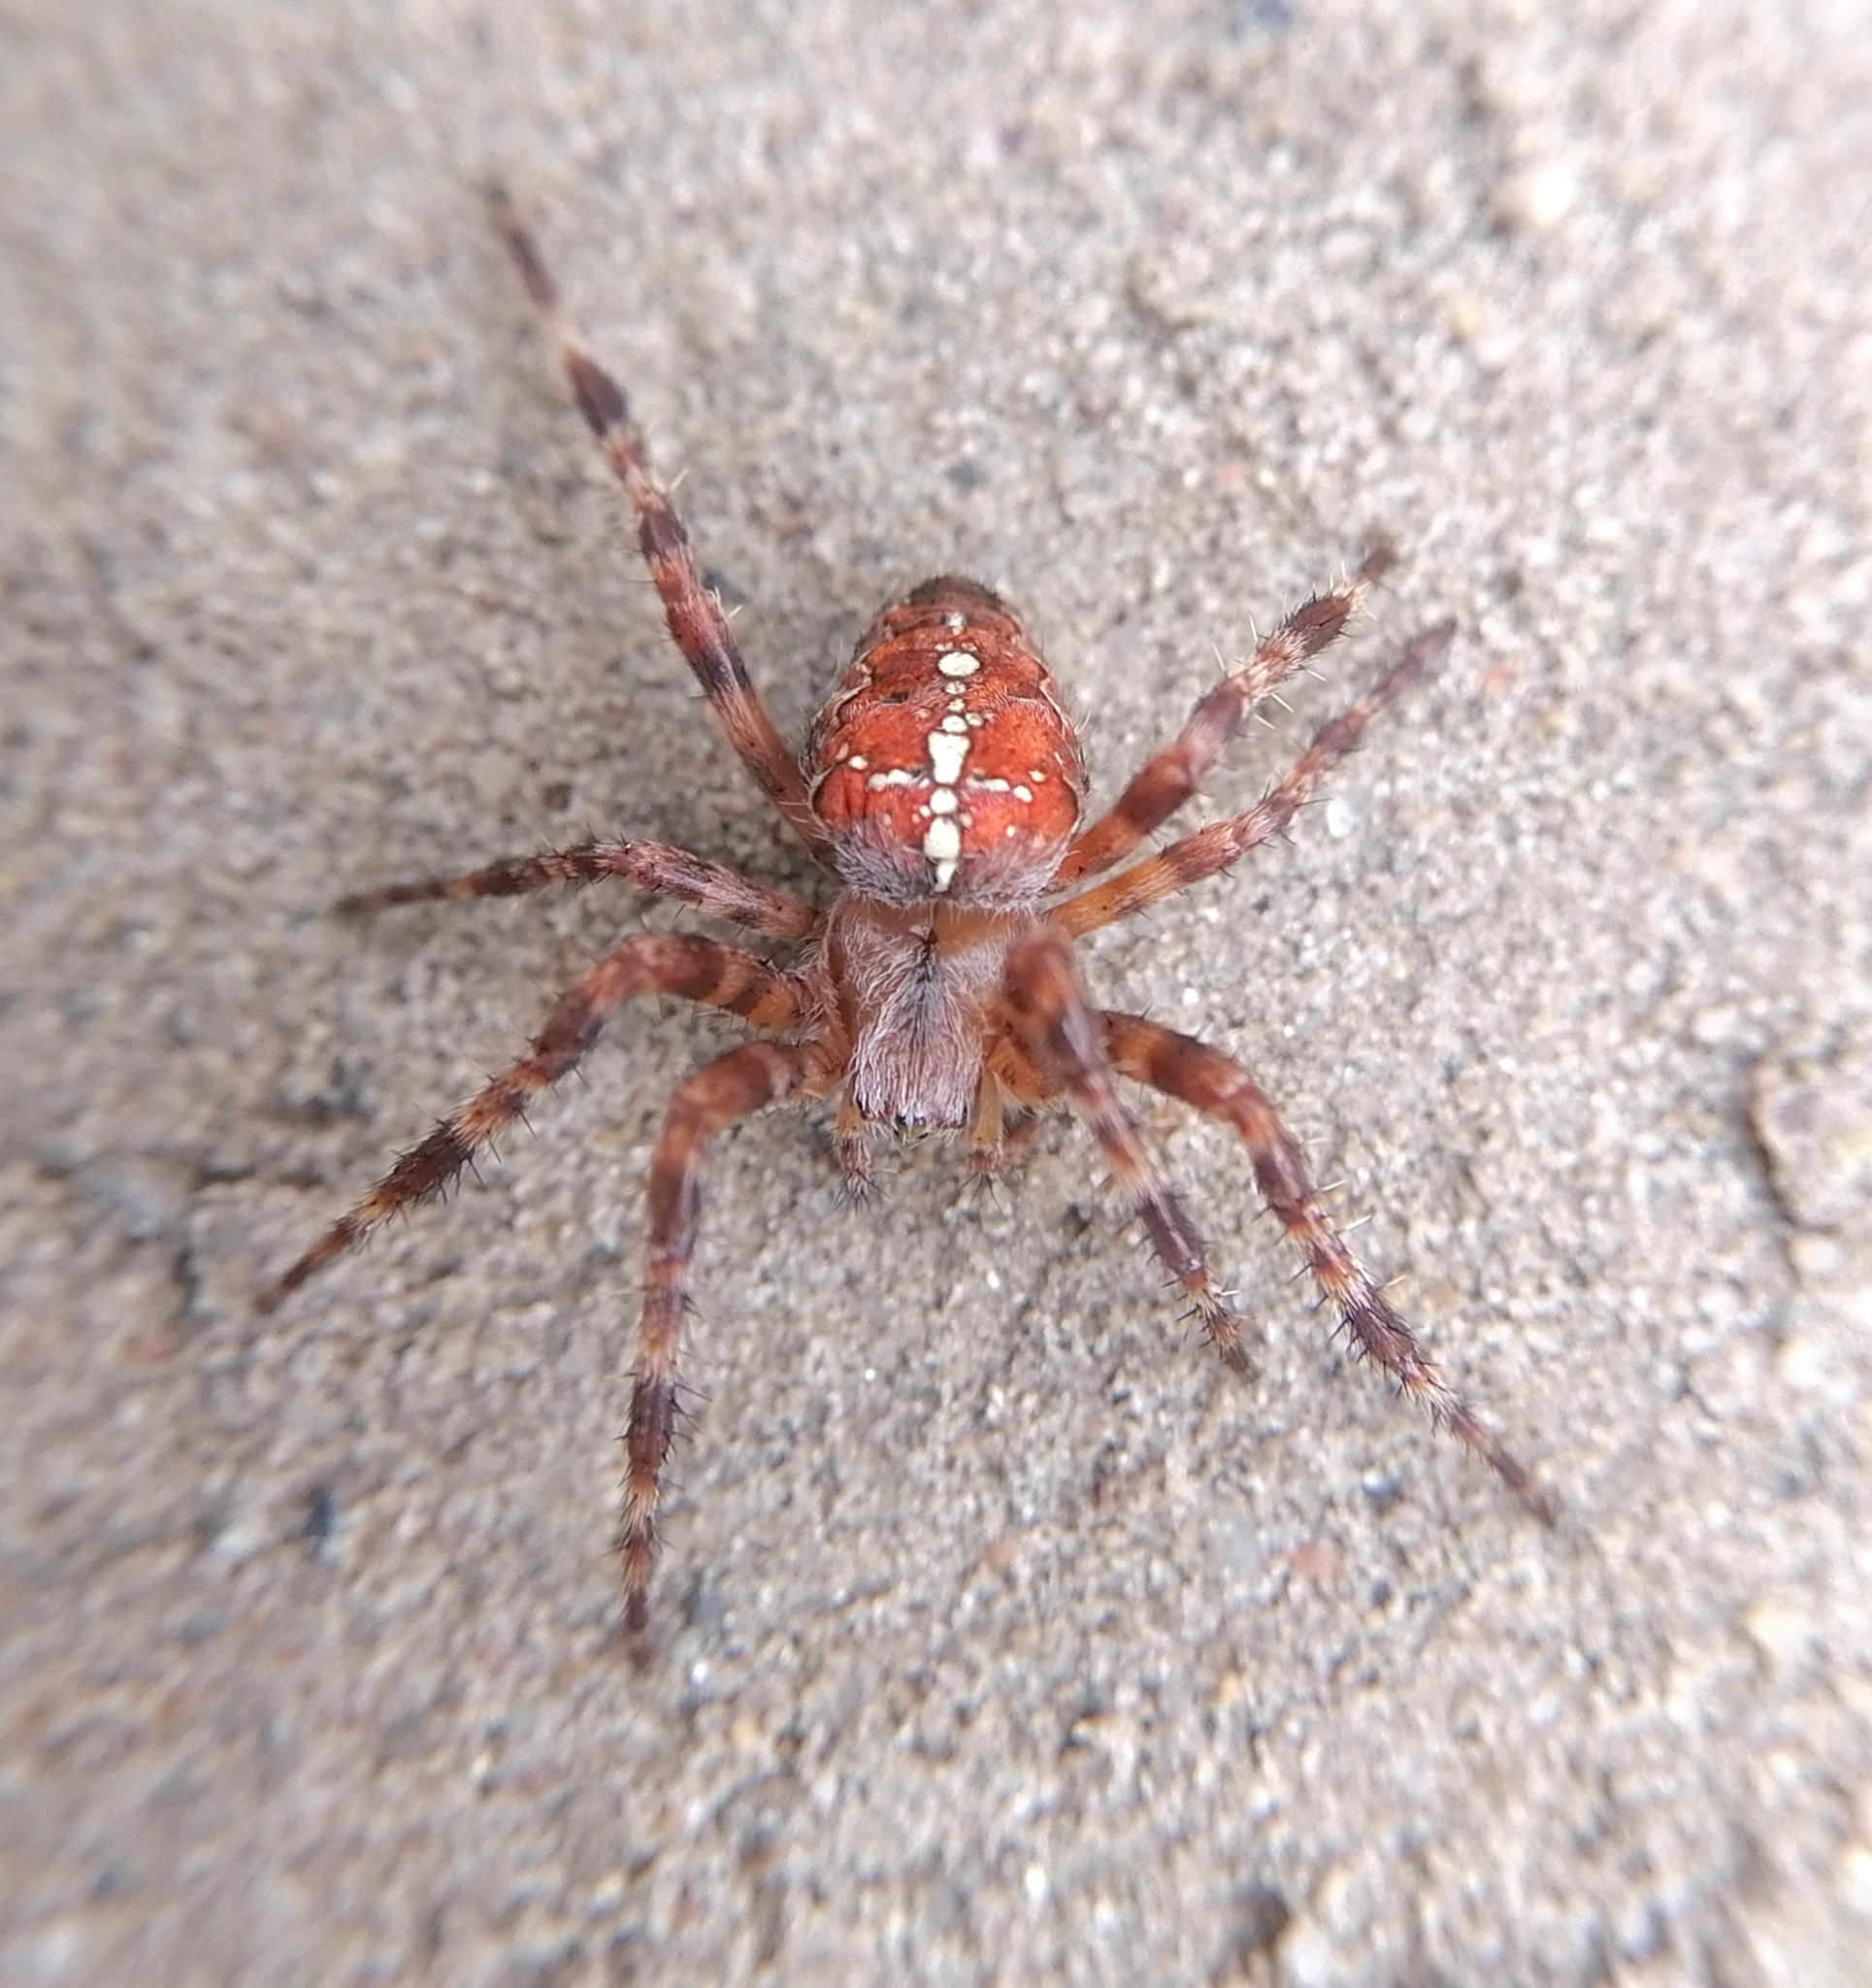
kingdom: Animalia
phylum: Arthropoda
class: Arachnida
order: Araneae
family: Araneidae
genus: Araneus
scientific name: Araneus diadematus
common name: Cross orbweaver
